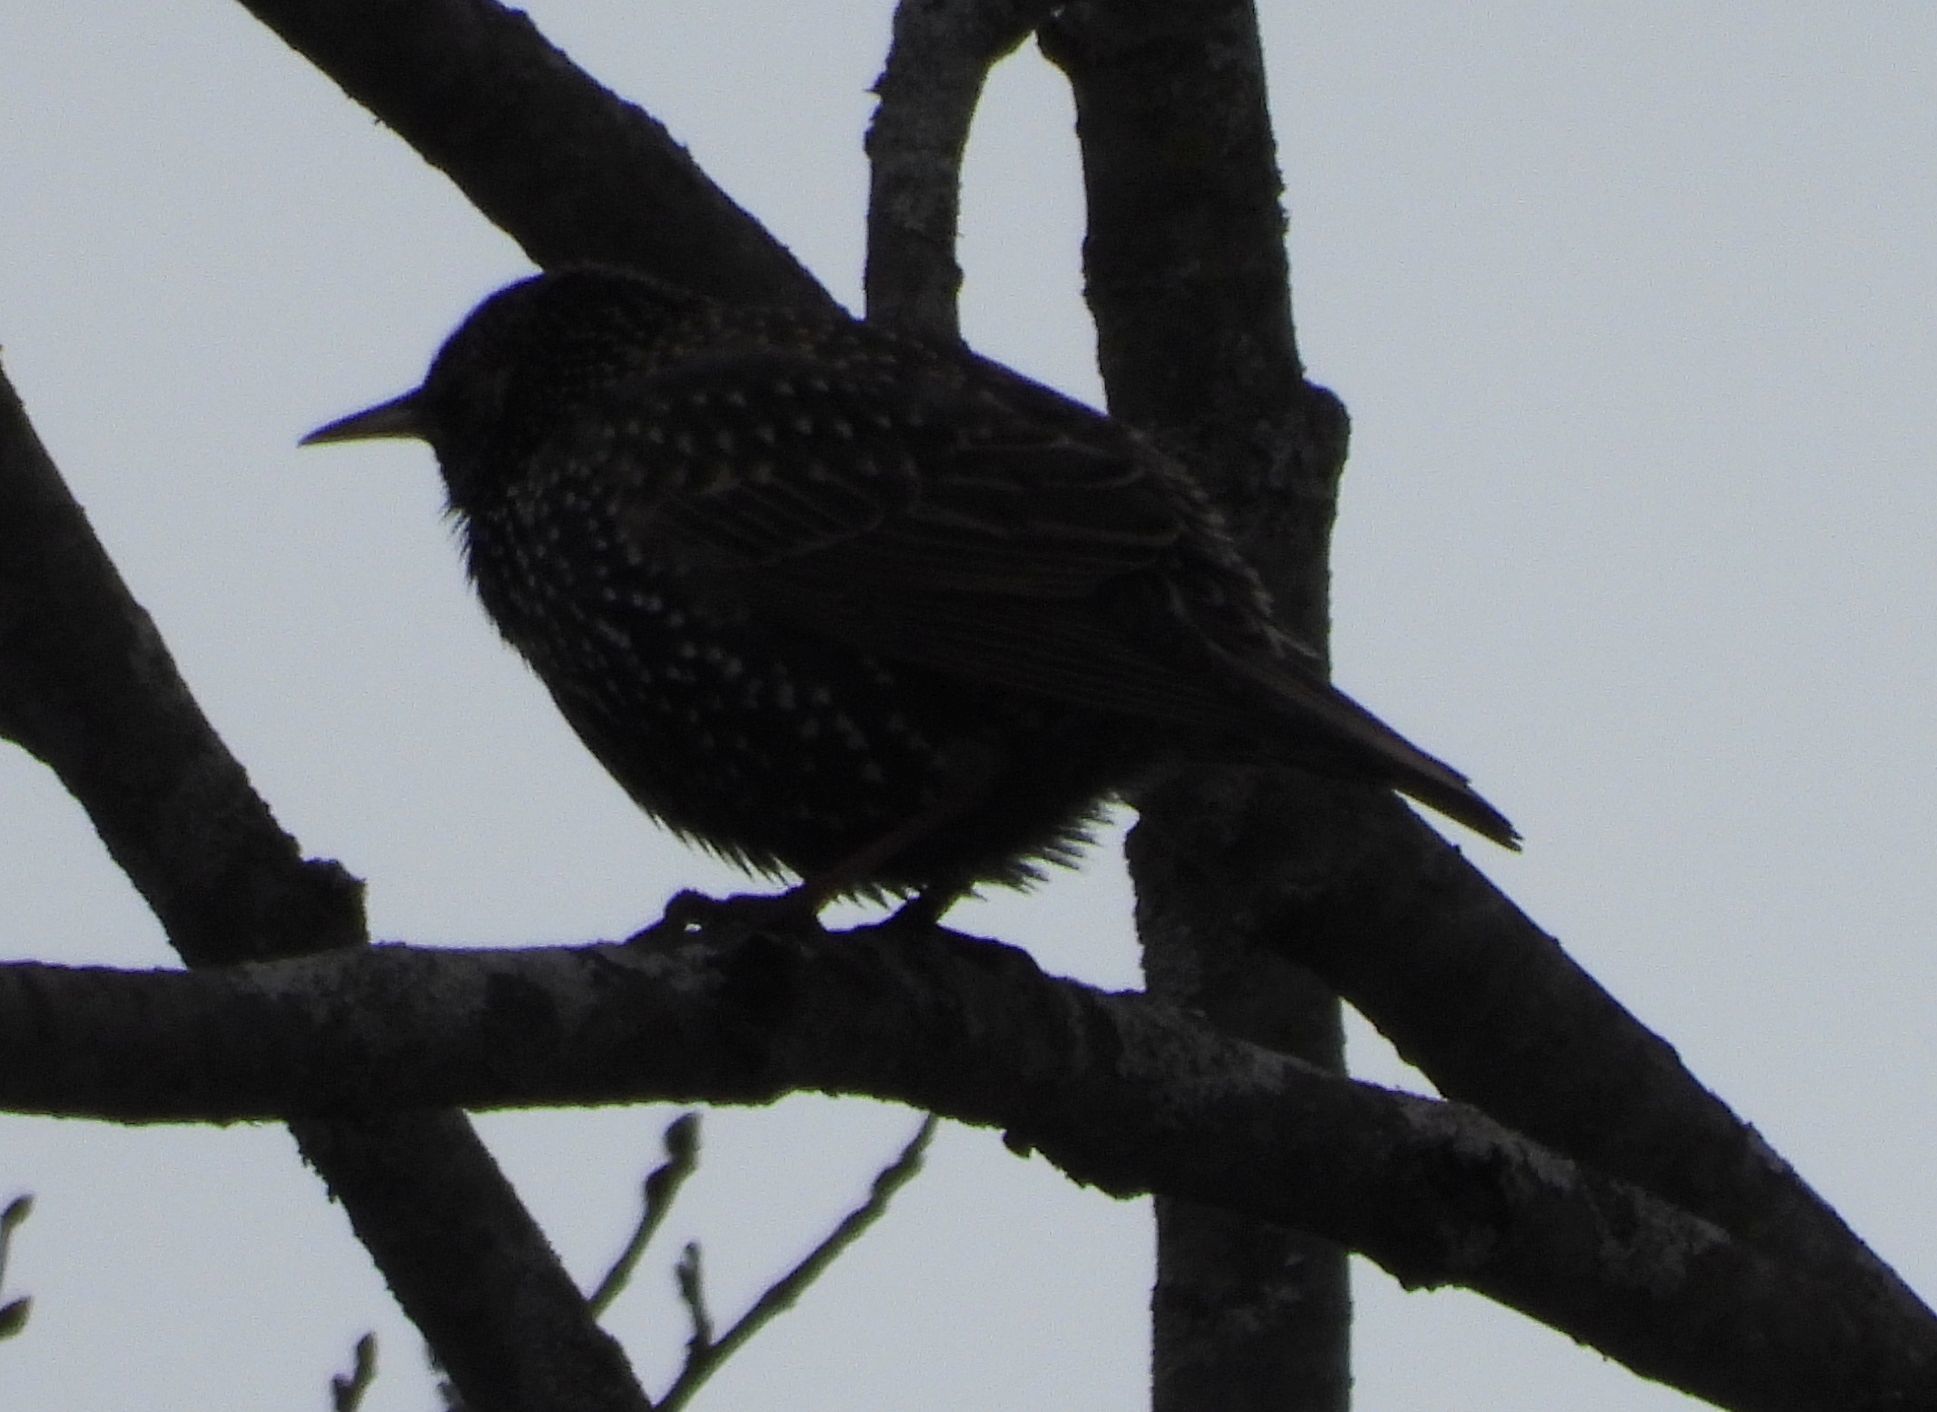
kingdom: Animalia
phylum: Chordata
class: Aves
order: Passeriformes
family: Sturnidae
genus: Sturnus
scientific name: Sturnus vulgaris
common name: Common starling
